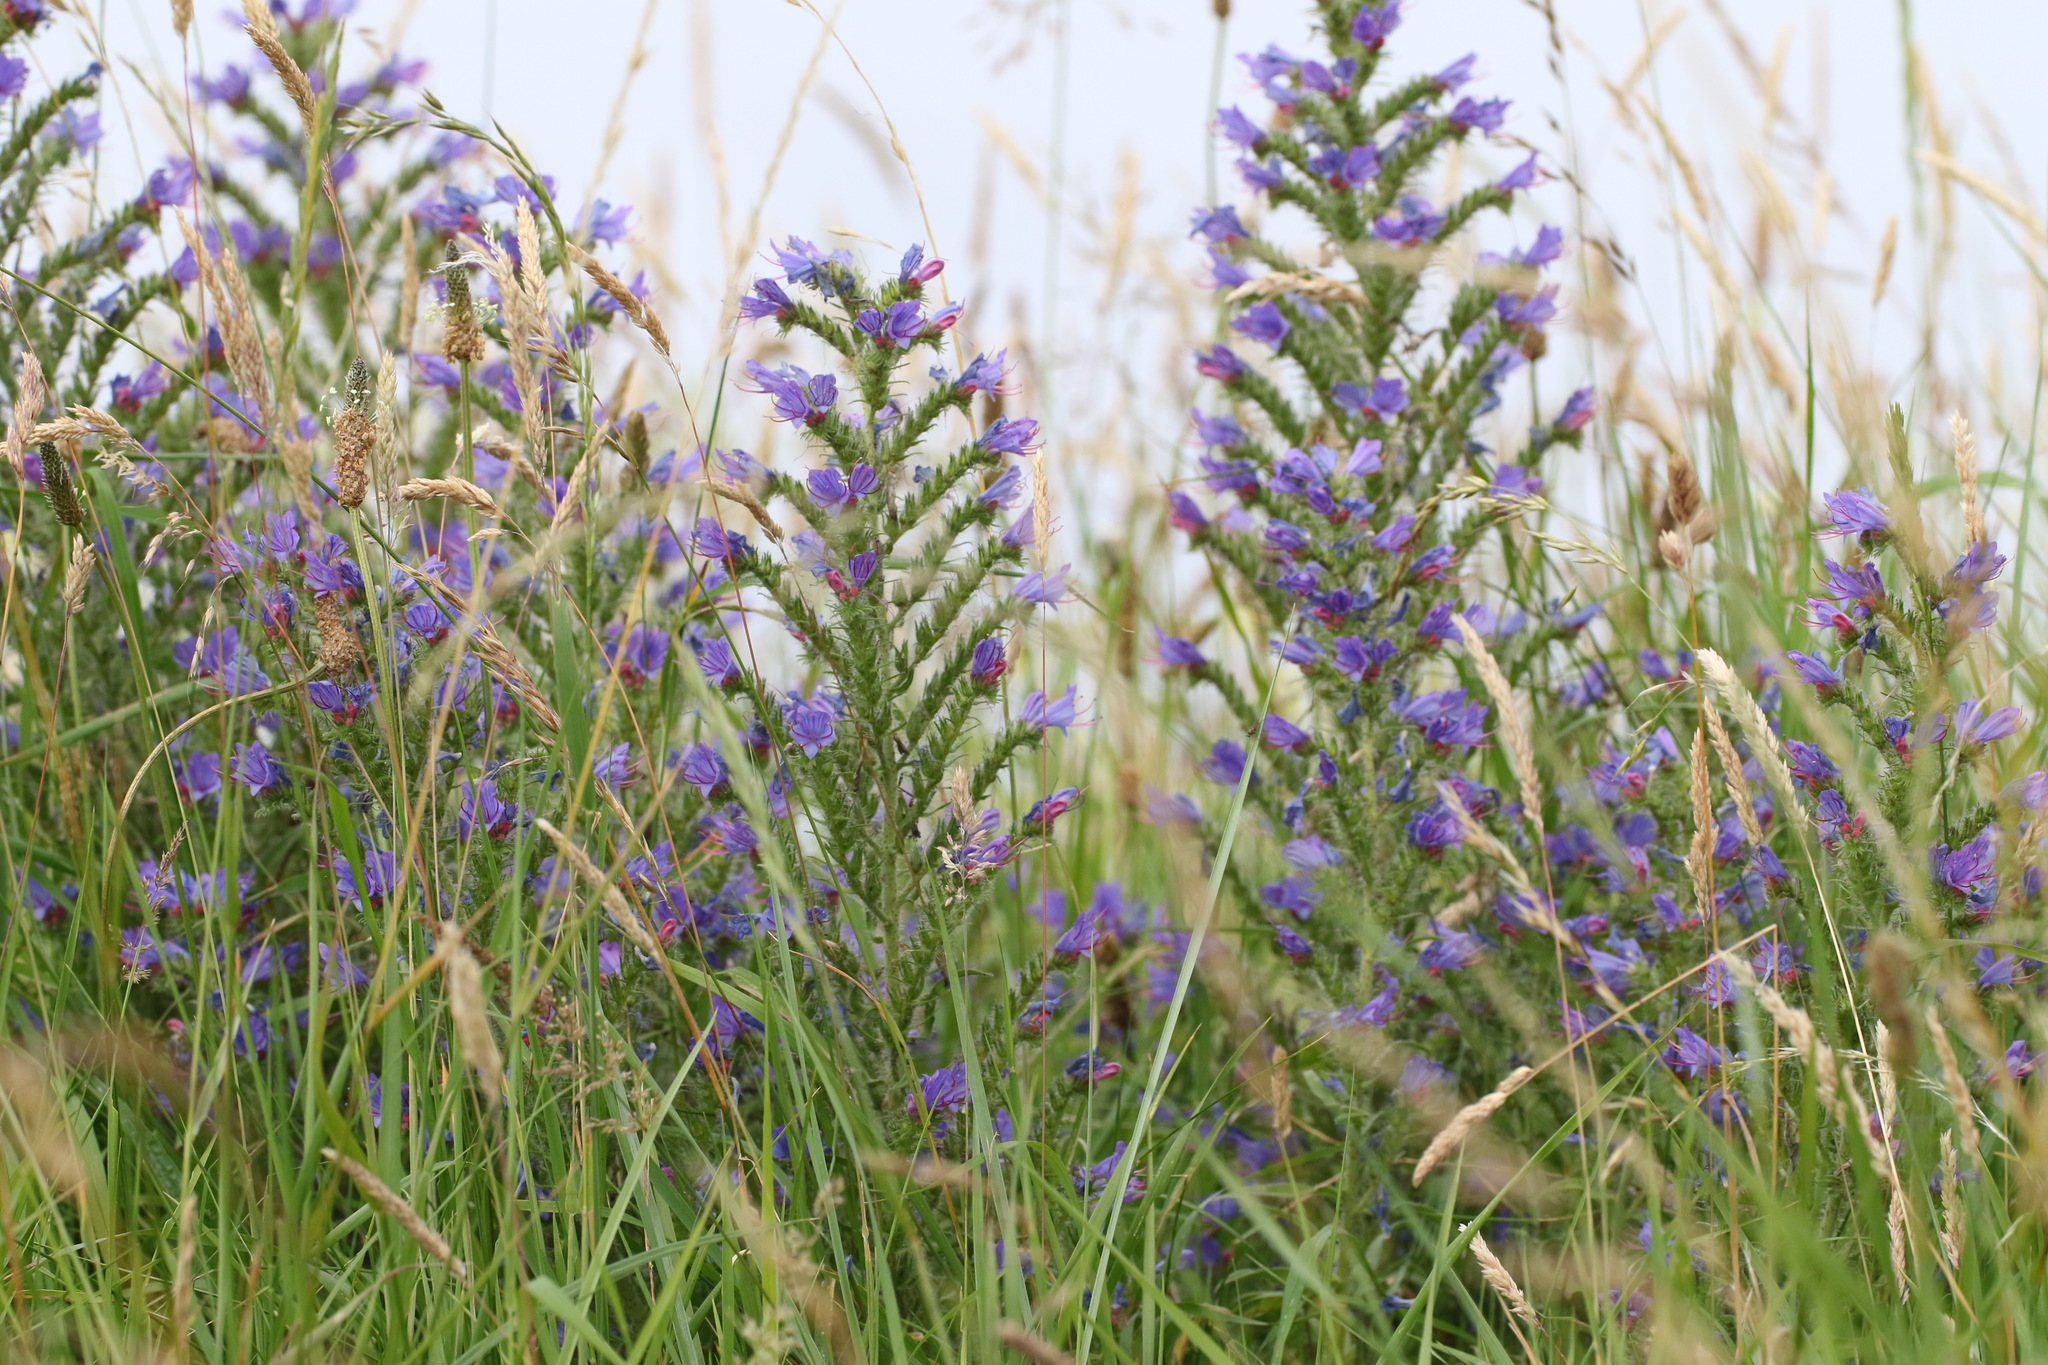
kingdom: Plantae
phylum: Tracheophyta
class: Magnoliopsida
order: Boraginales
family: Boraginaceae
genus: Echium
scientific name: Echium vulgare
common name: Common viper's bugloss
